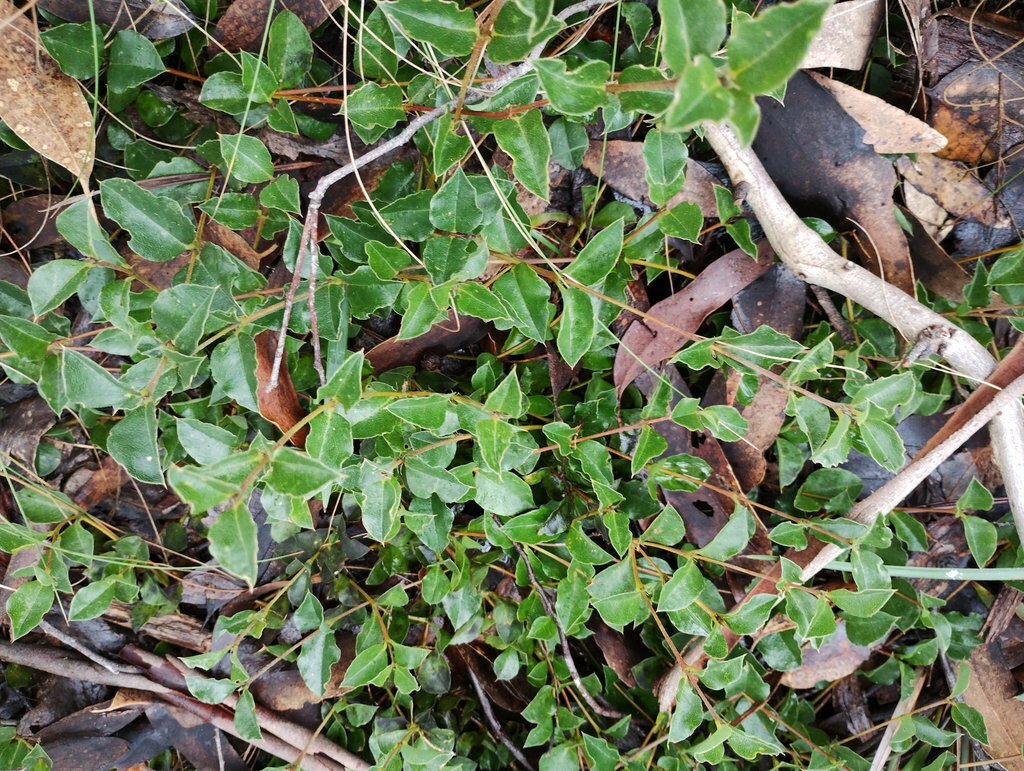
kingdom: Plantae
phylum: Tracheophyta
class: Magnoliopsida
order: Fabales
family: Fabaceae
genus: Podolobium
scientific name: Podolobium procumbens
